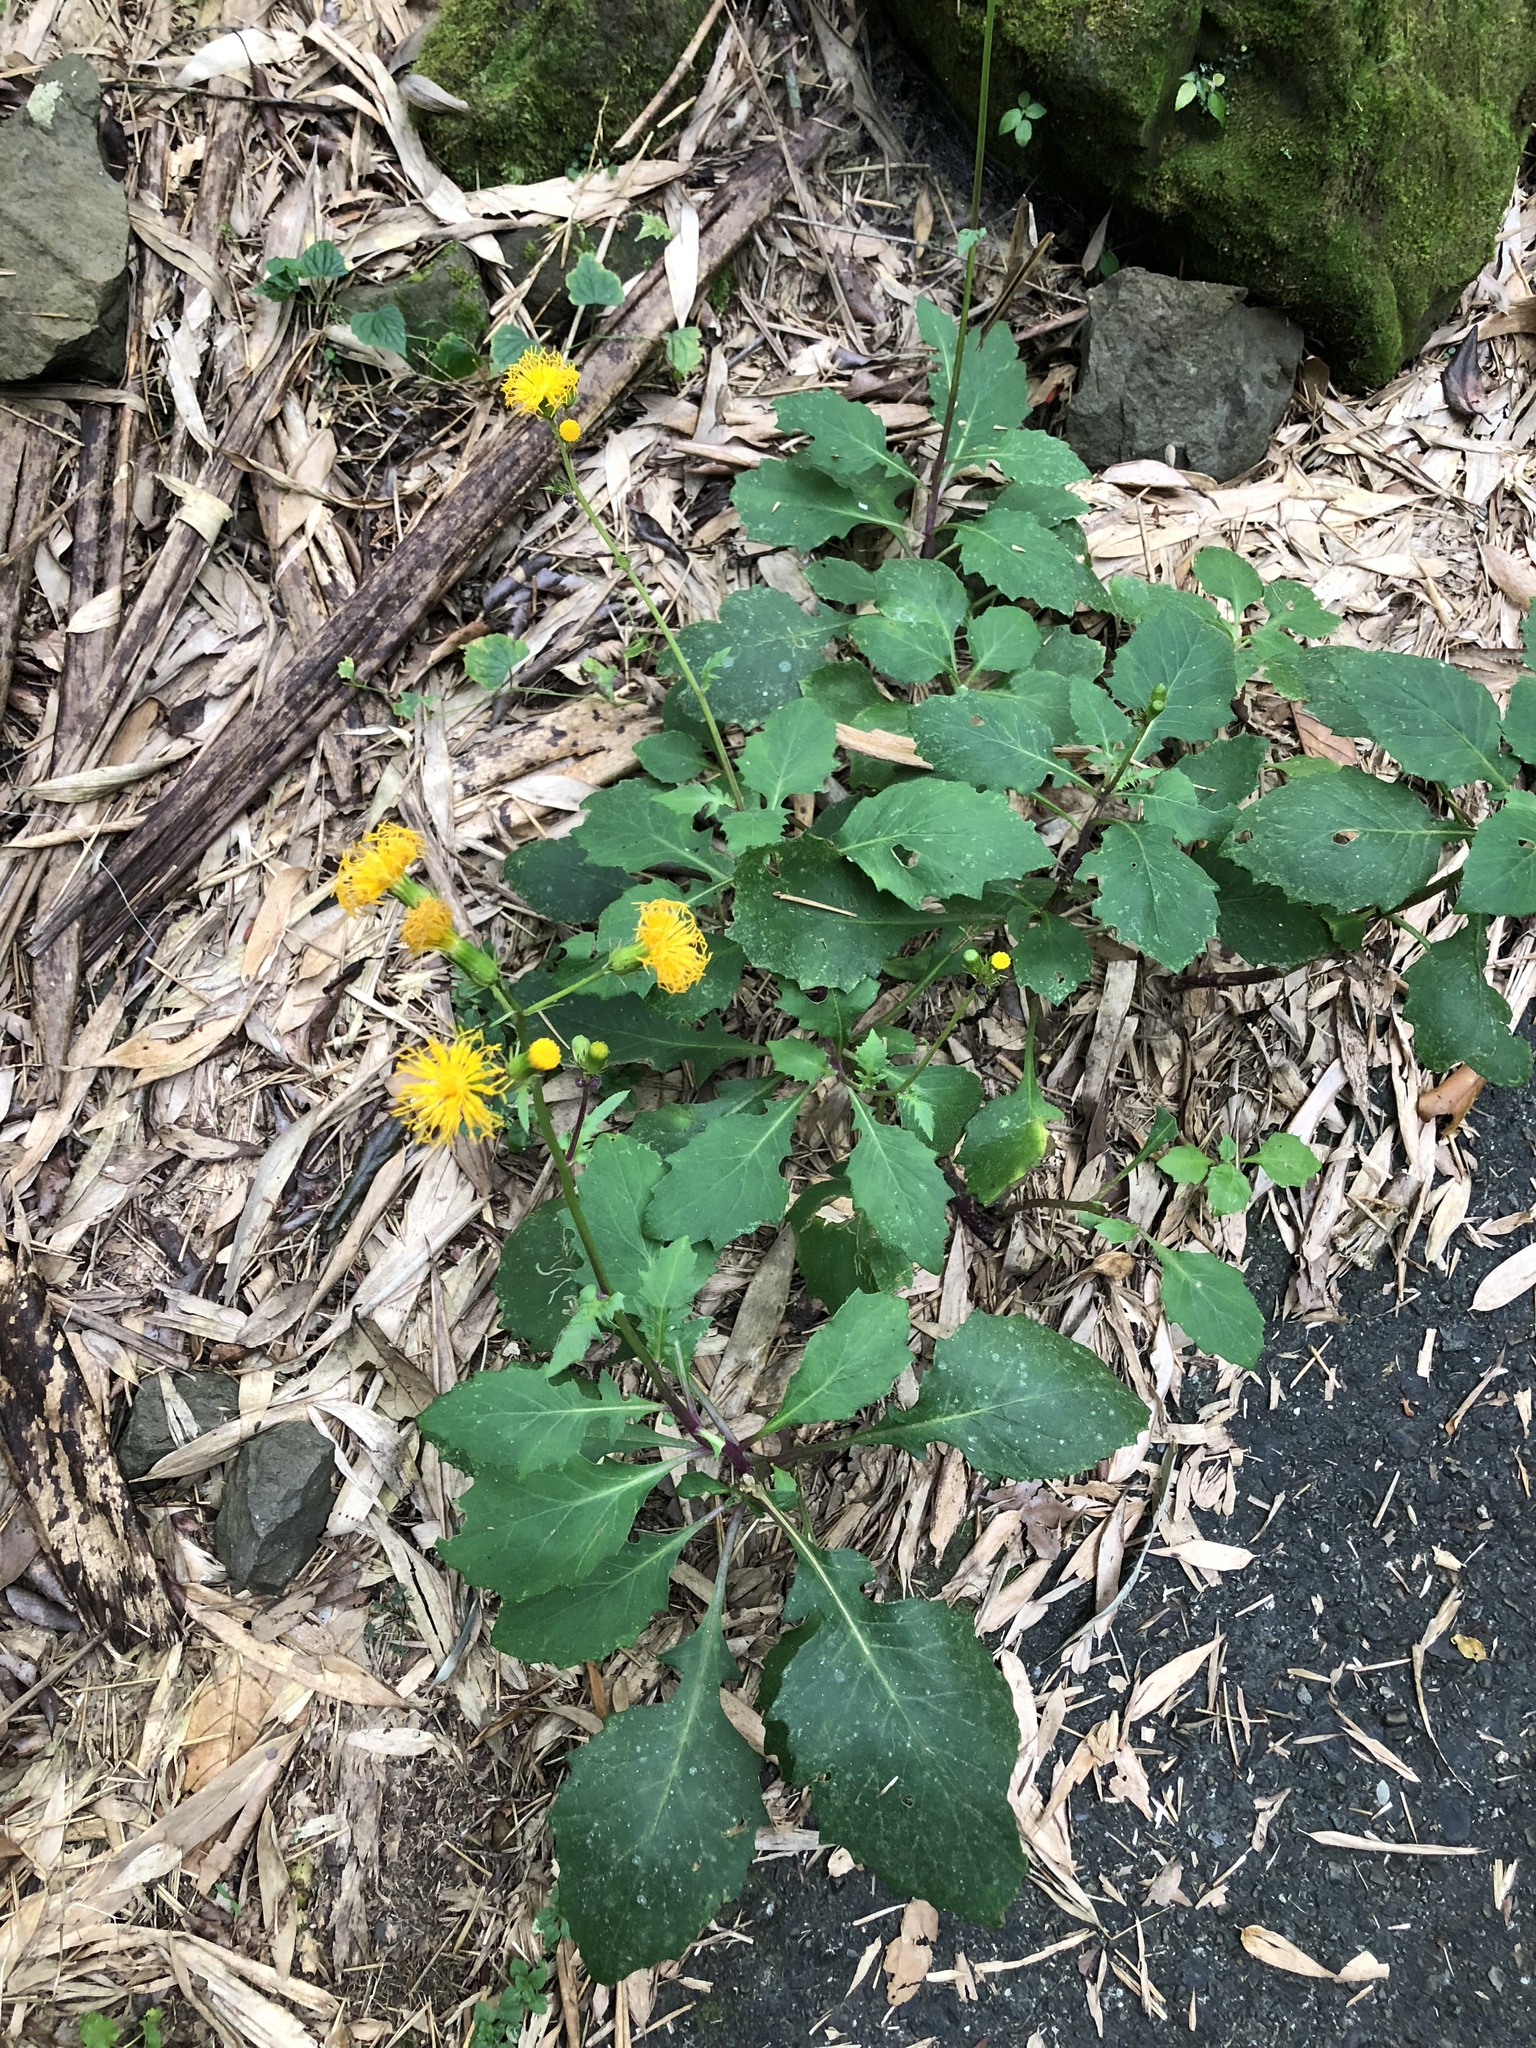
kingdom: Plantae
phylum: Tracheophyta
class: Magnoliopsida
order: Asterales
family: Asteraceae
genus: Gynura
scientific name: Gynura japonica
